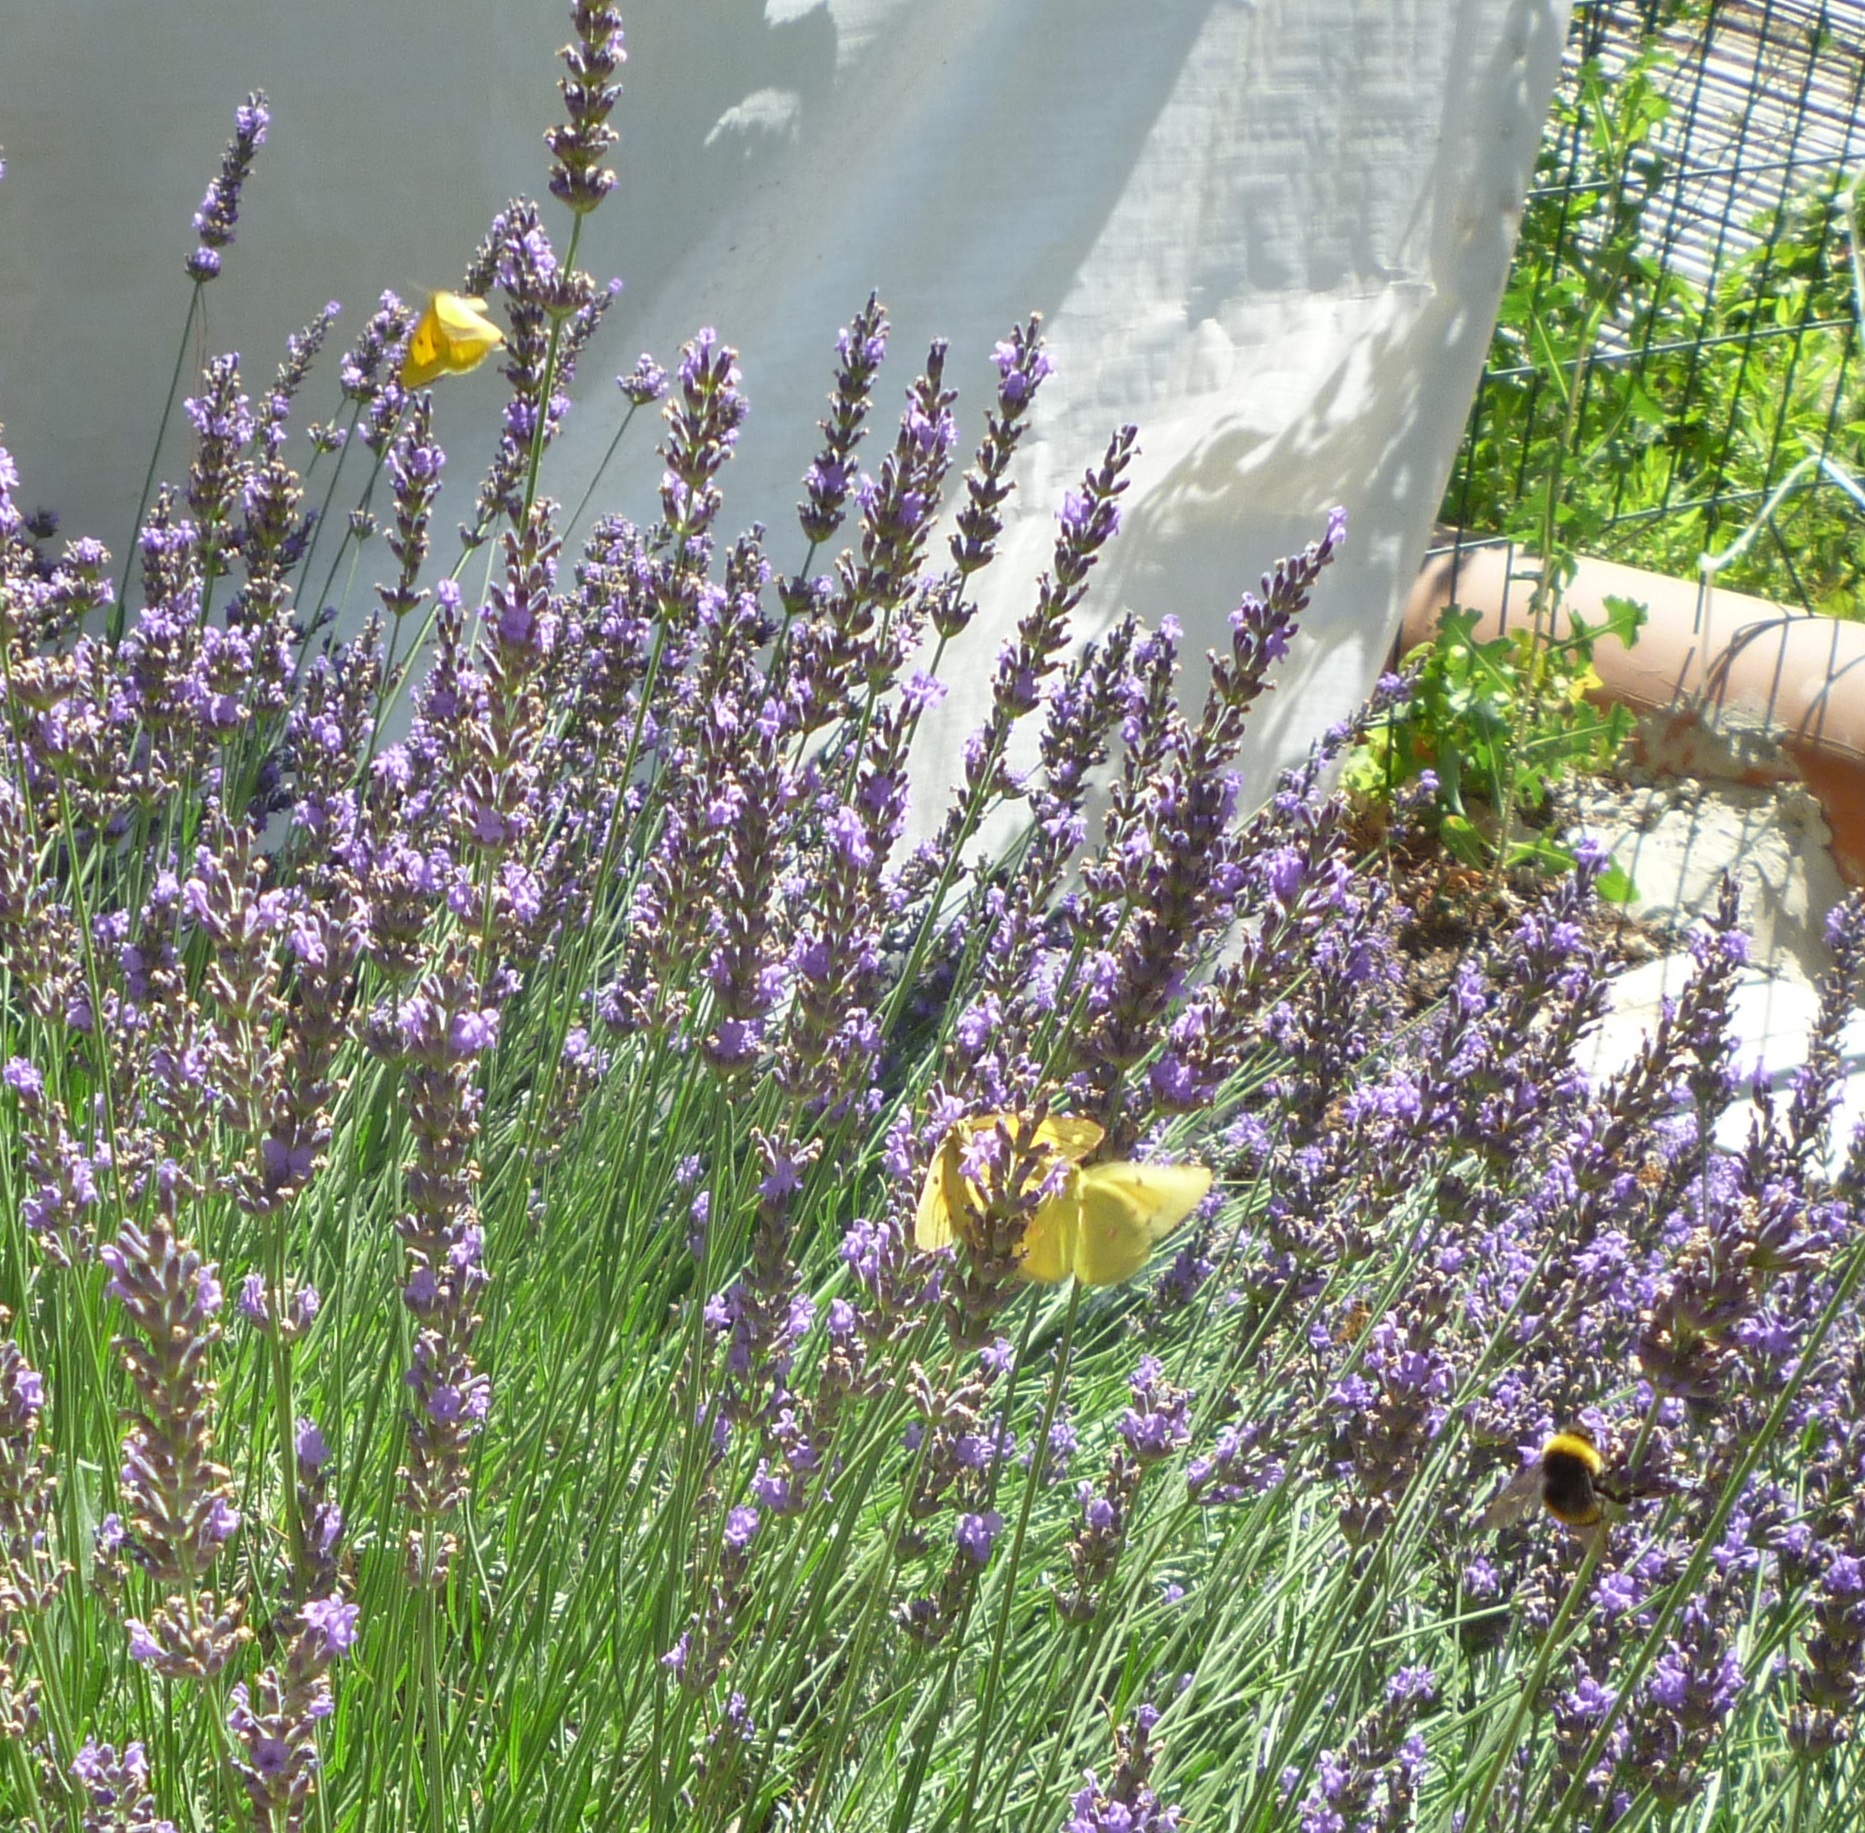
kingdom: Animalia
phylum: Arthropoda
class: Insecta
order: Lepidoptera
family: Pieridae
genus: Colias
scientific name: Colias croceus
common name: Clouded yellow
